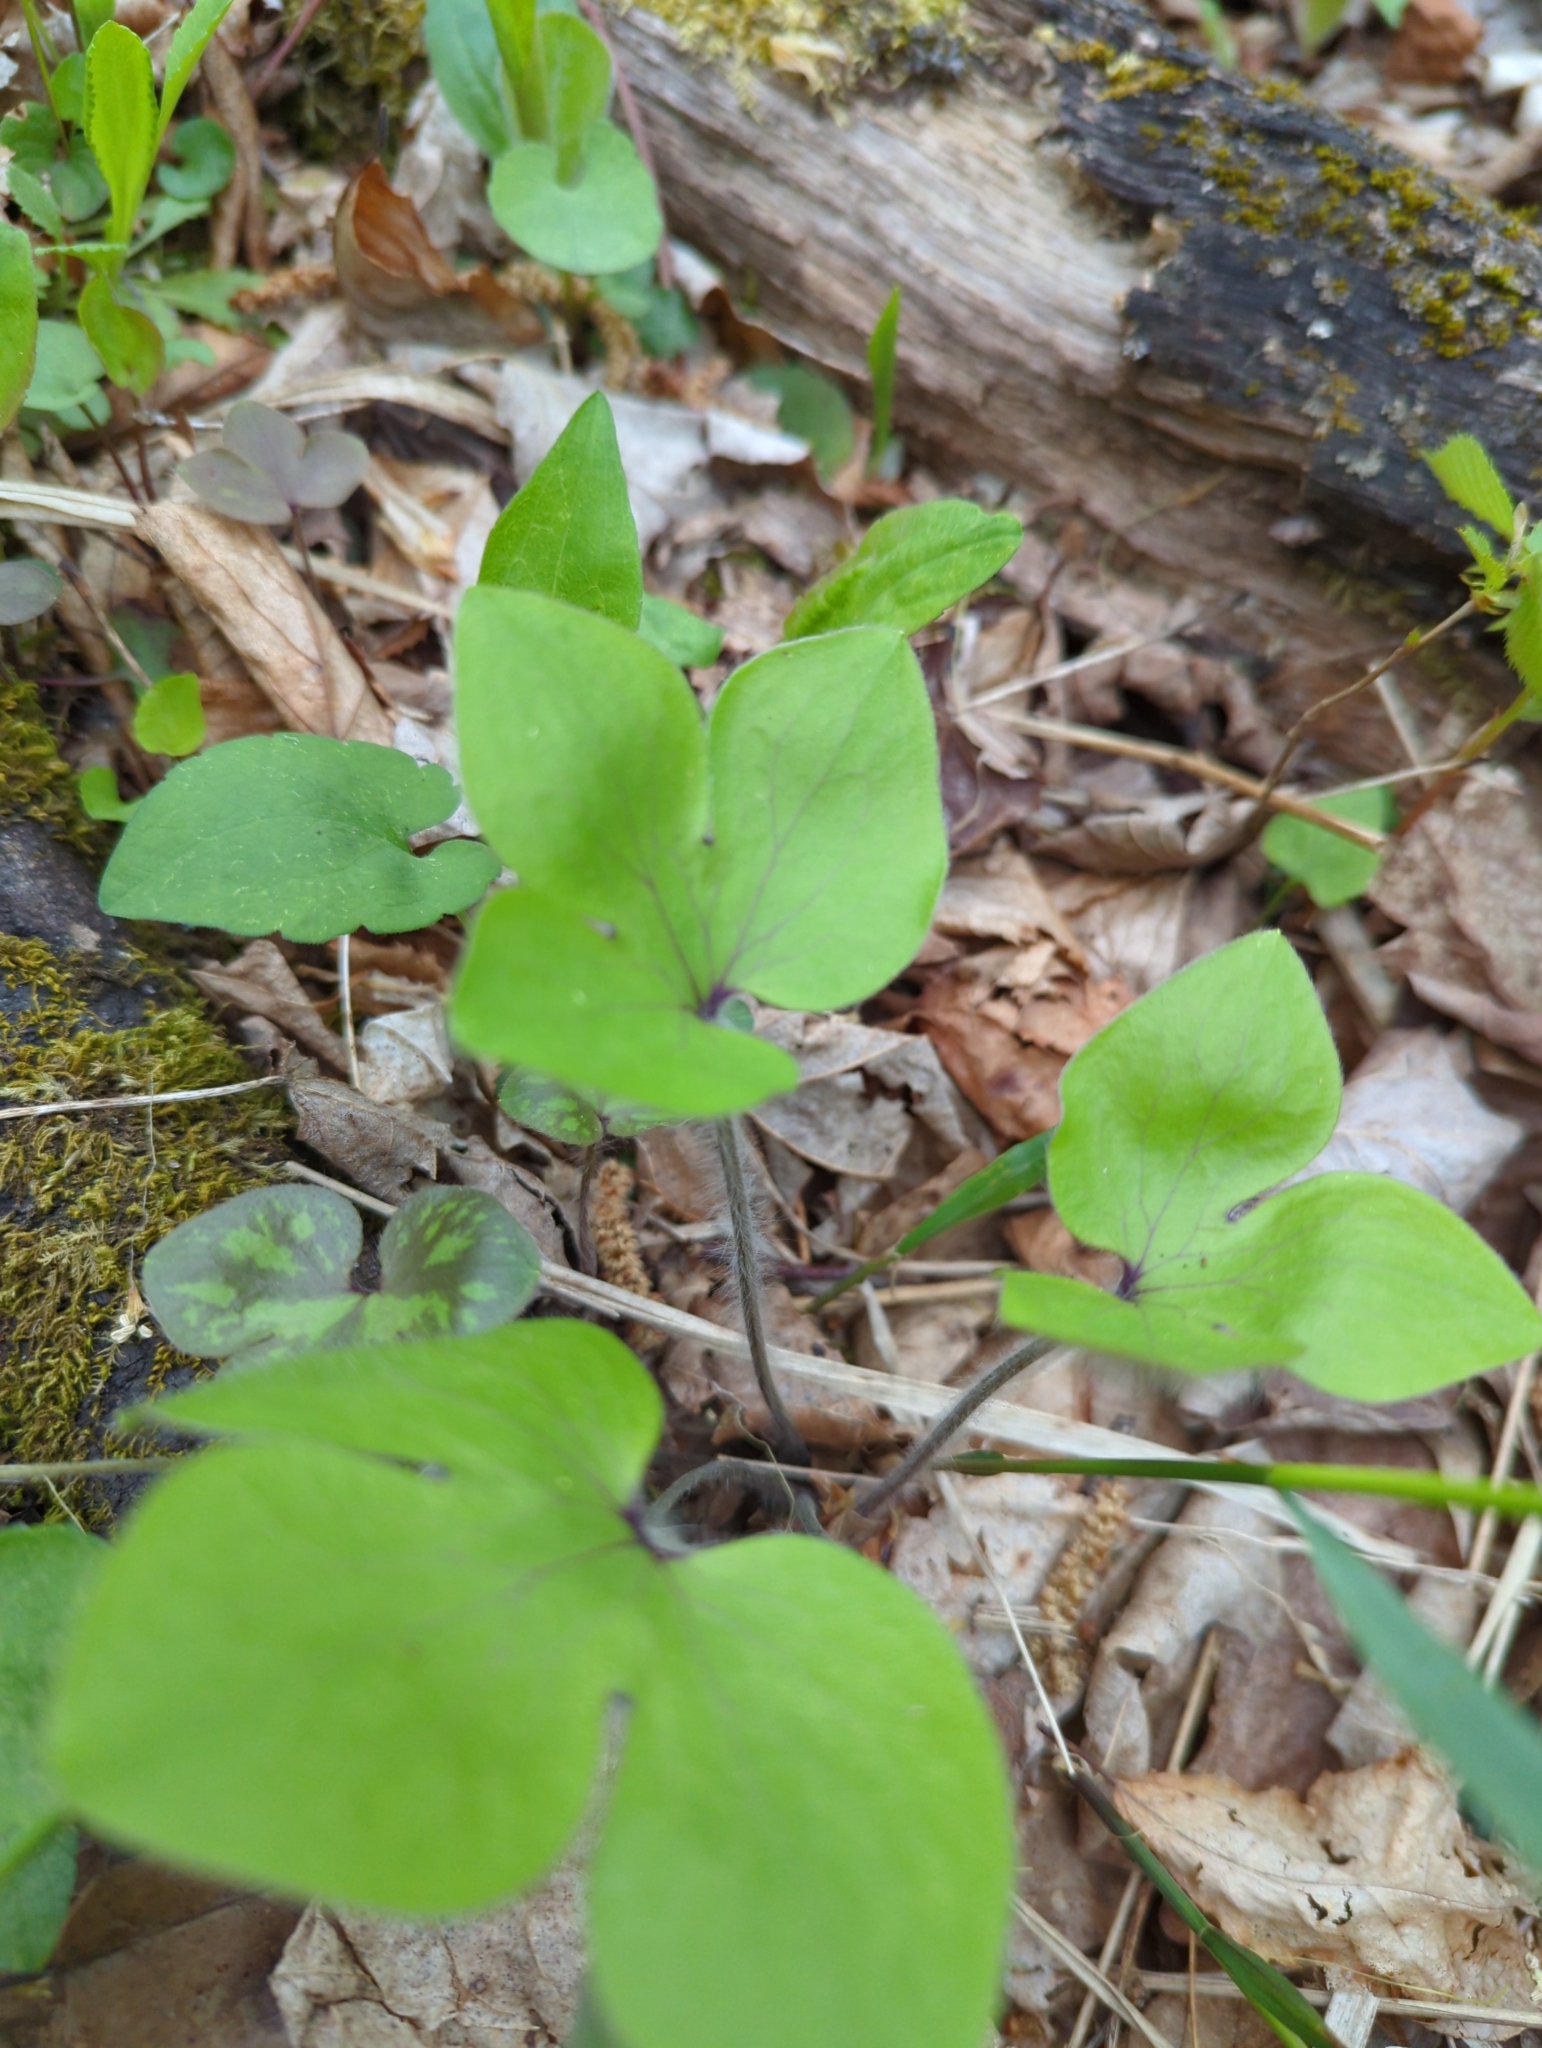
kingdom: Plantae
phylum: Tracheophyta
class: Magnoliopsida
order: Ranunculales
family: Ranunculaceae
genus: Hepatica
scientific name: Hepatica acutiloba
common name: Sharp-lobed hepatica
